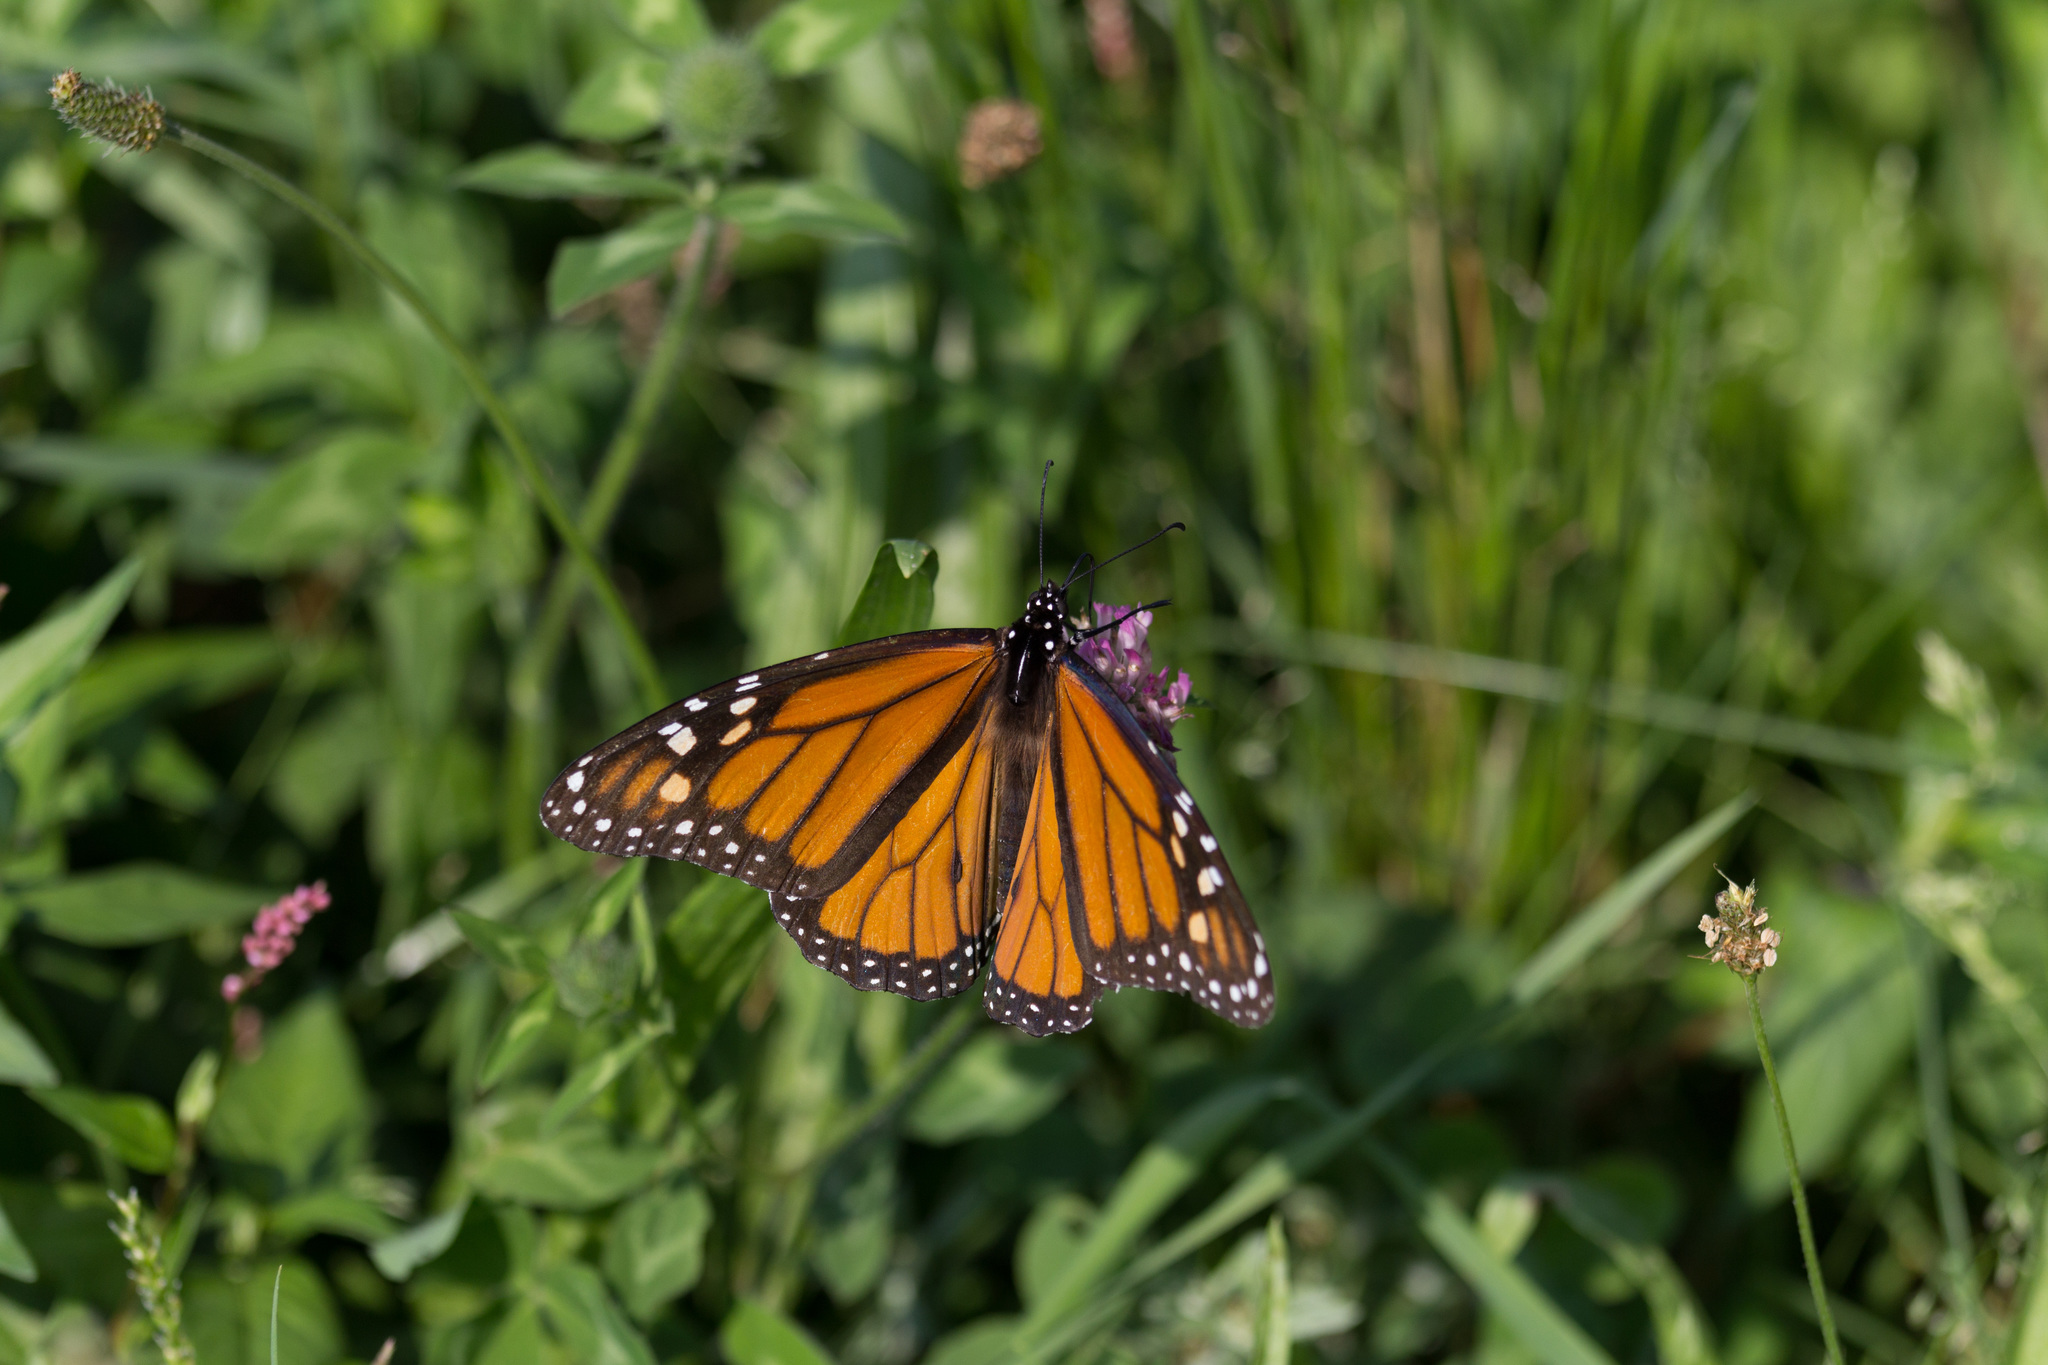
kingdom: Animalia
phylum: Arthropoda
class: Insecta
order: Lepidoptera
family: Nymphalidae
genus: Danaus
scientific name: Danaus plexippus
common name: Monarch
